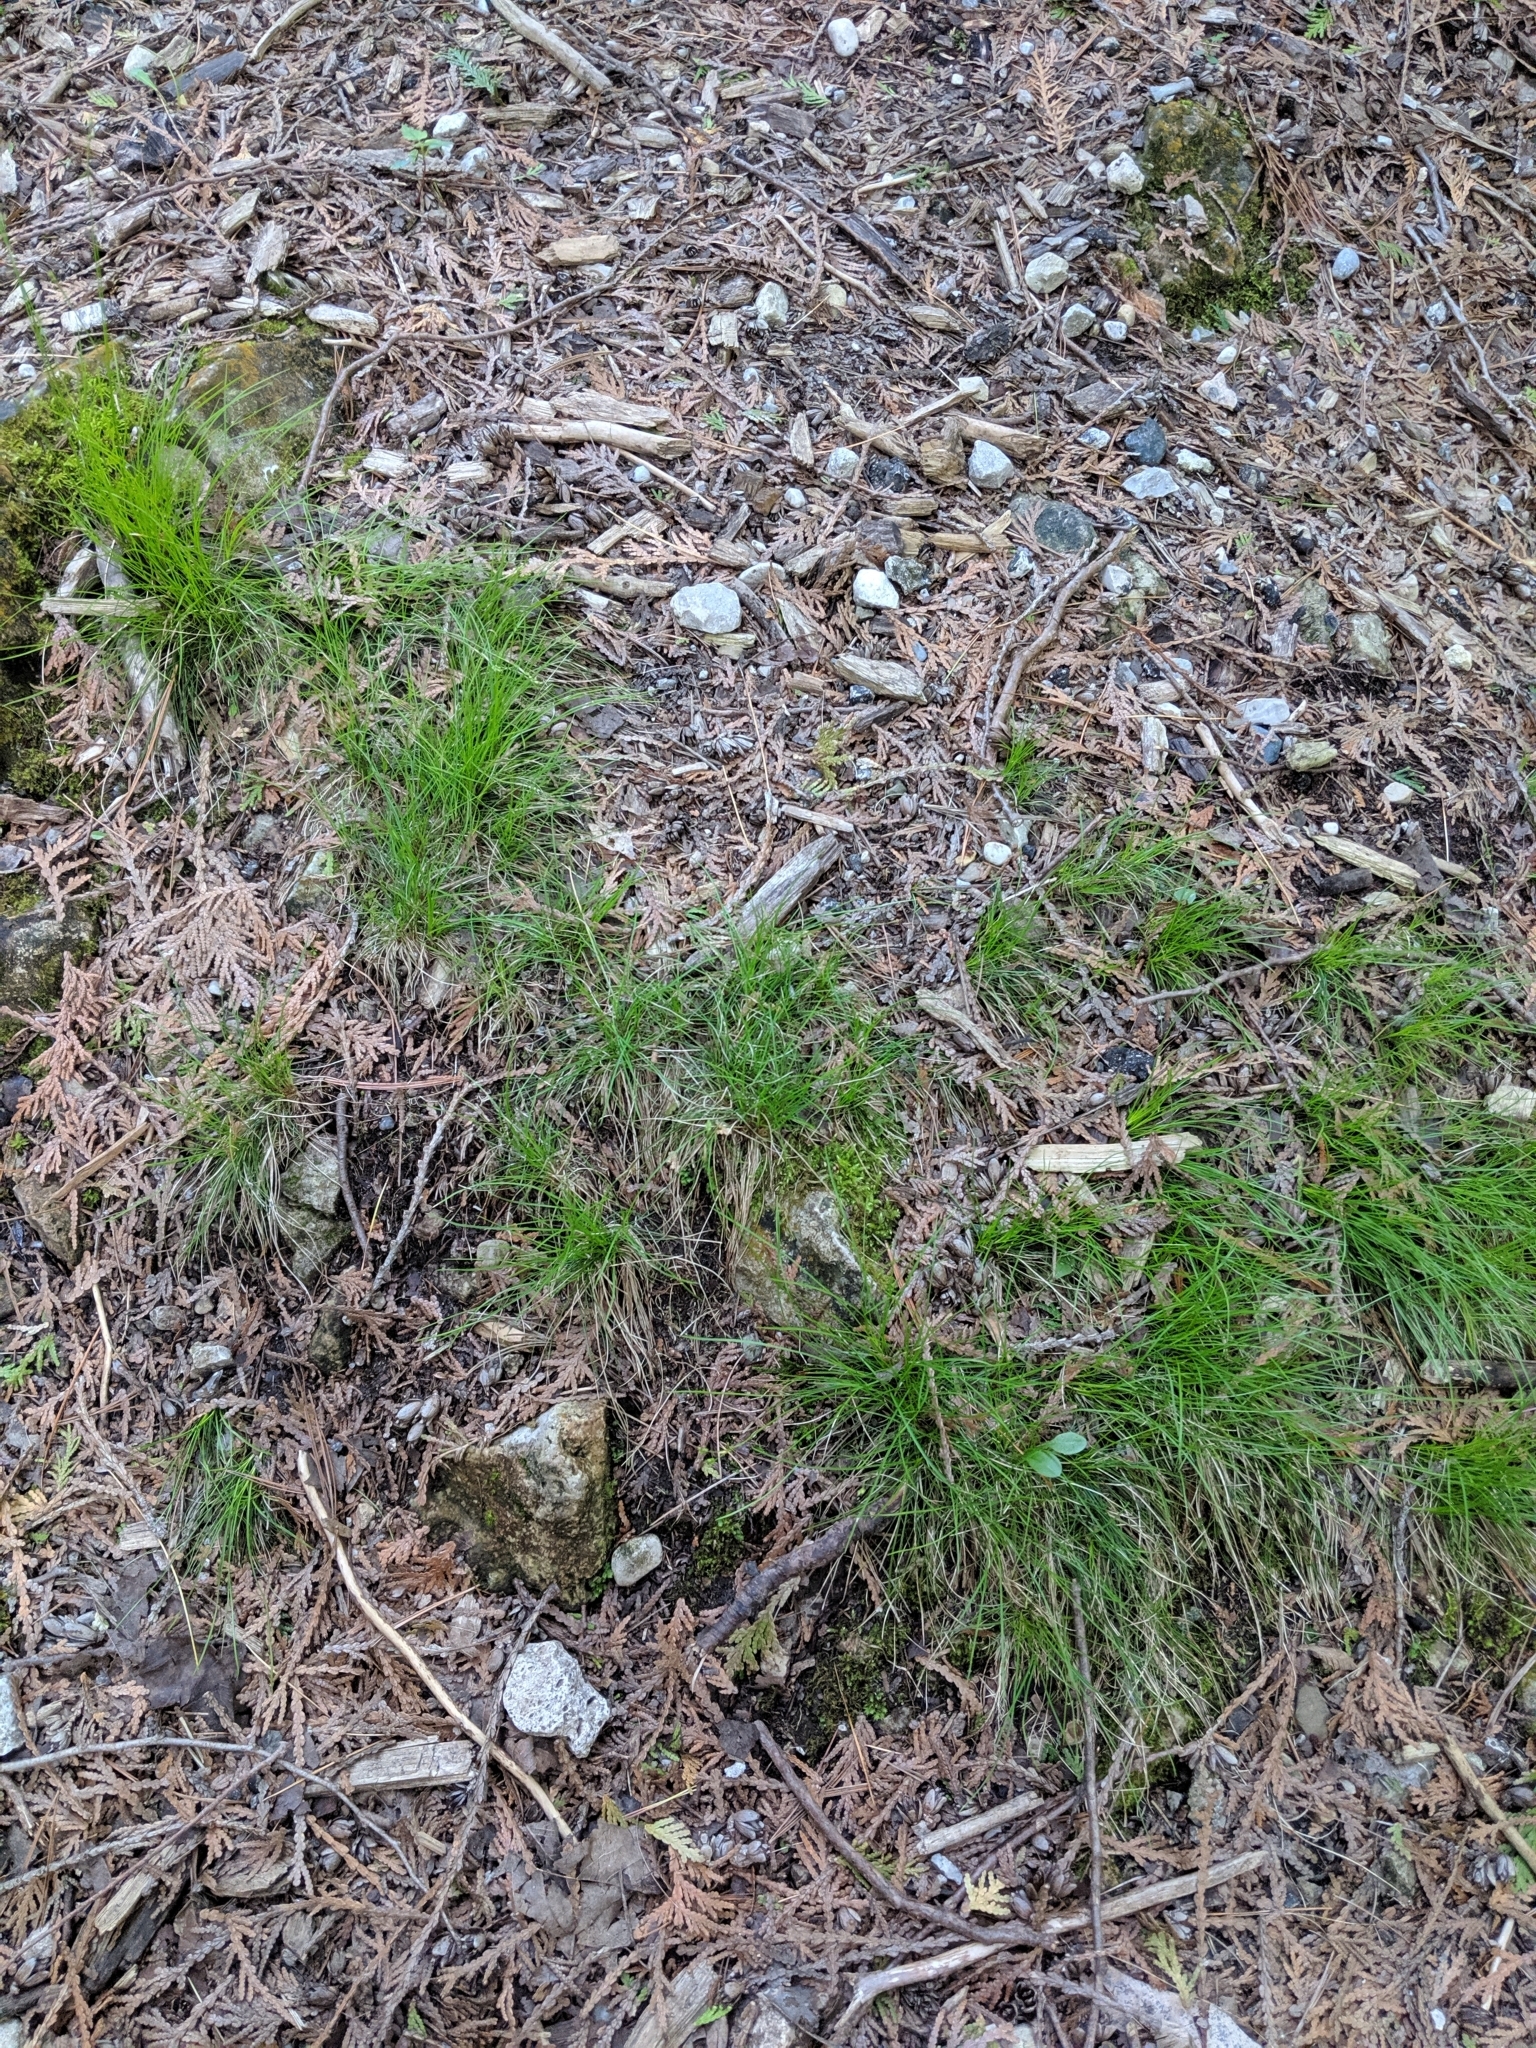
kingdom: Plantae
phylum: Tracheophyta
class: Liliopsida
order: Poales
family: Cyperaceae
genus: Carex
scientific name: Carex eburnea
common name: Bristle-leaved sedge
